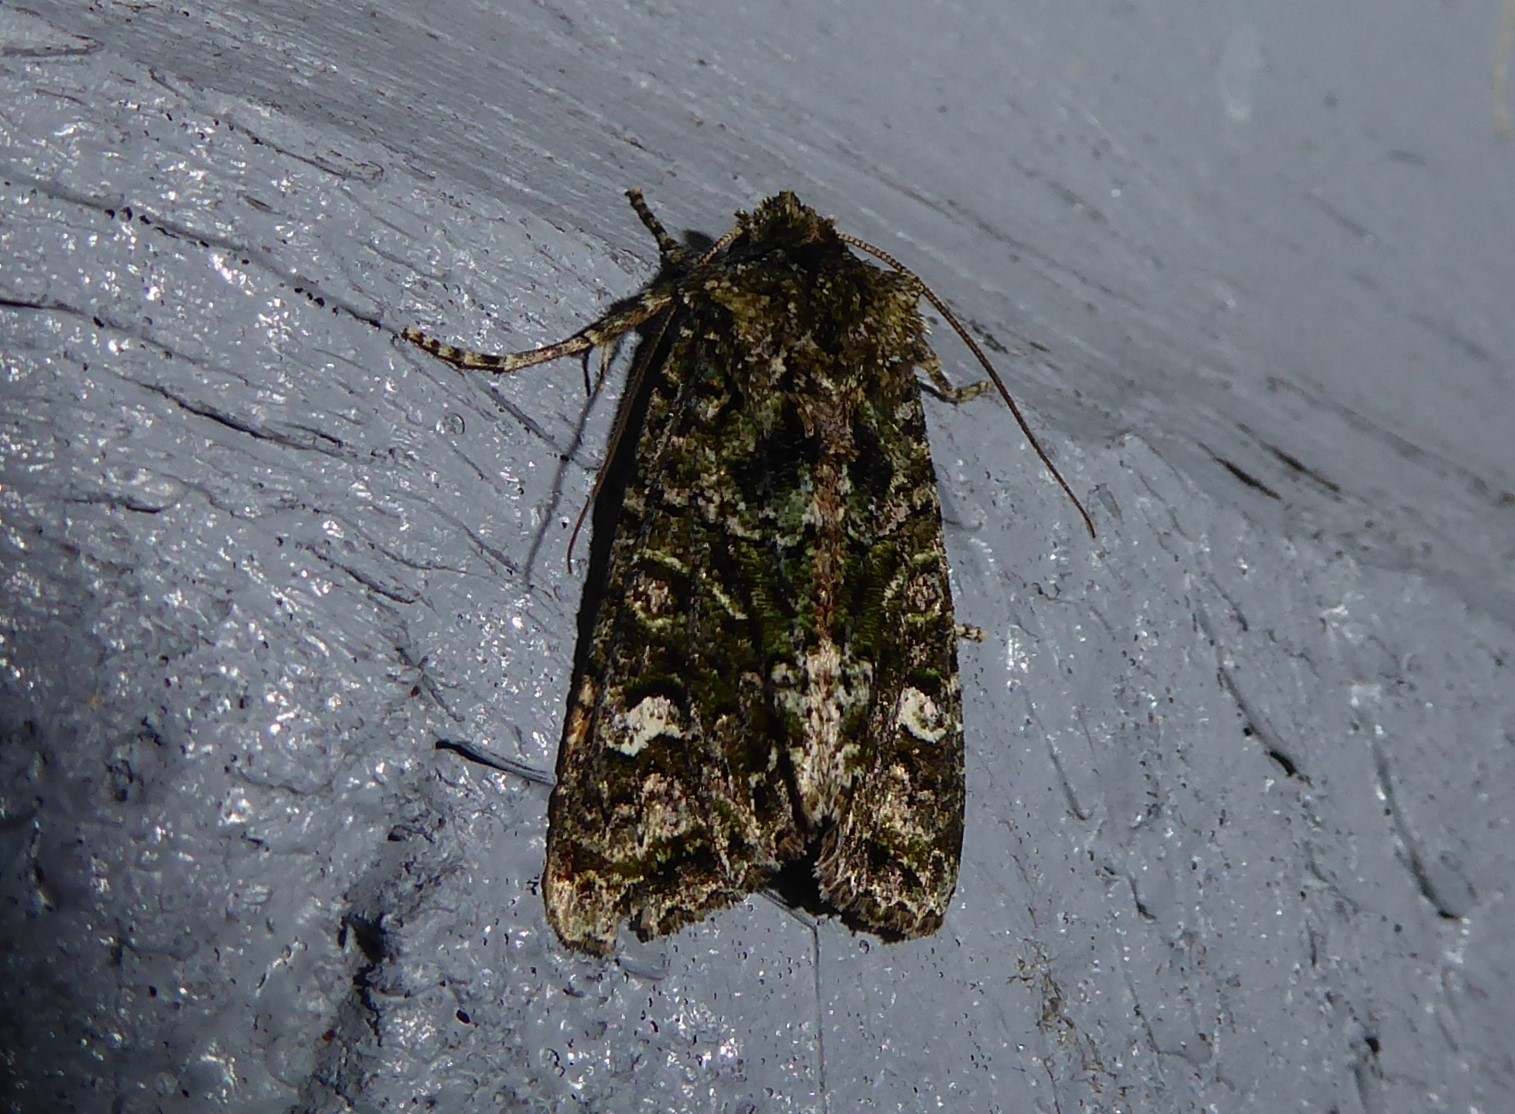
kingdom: Animalia
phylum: Arthropoda
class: Insecta
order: Lepidoptera
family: Noctuidae
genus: Ichneutica
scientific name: Ichneutica
